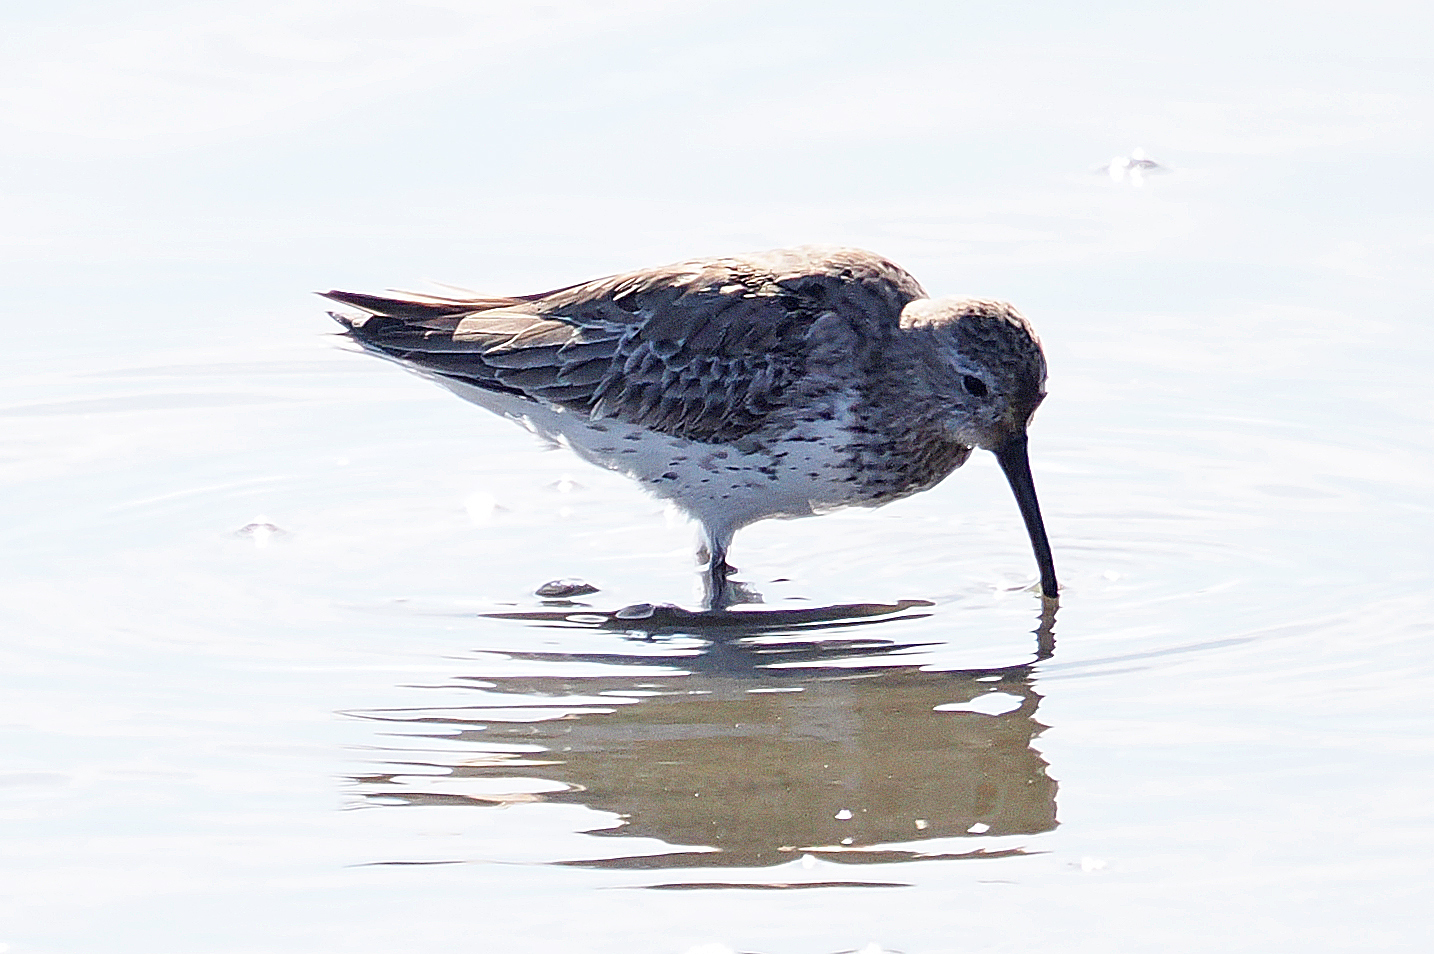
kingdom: Animalia
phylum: Chordata
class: Aves
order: Charadriiformes
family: Scolopacidae
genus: Calidris
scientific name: Calidris alpina
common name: Dunlin
